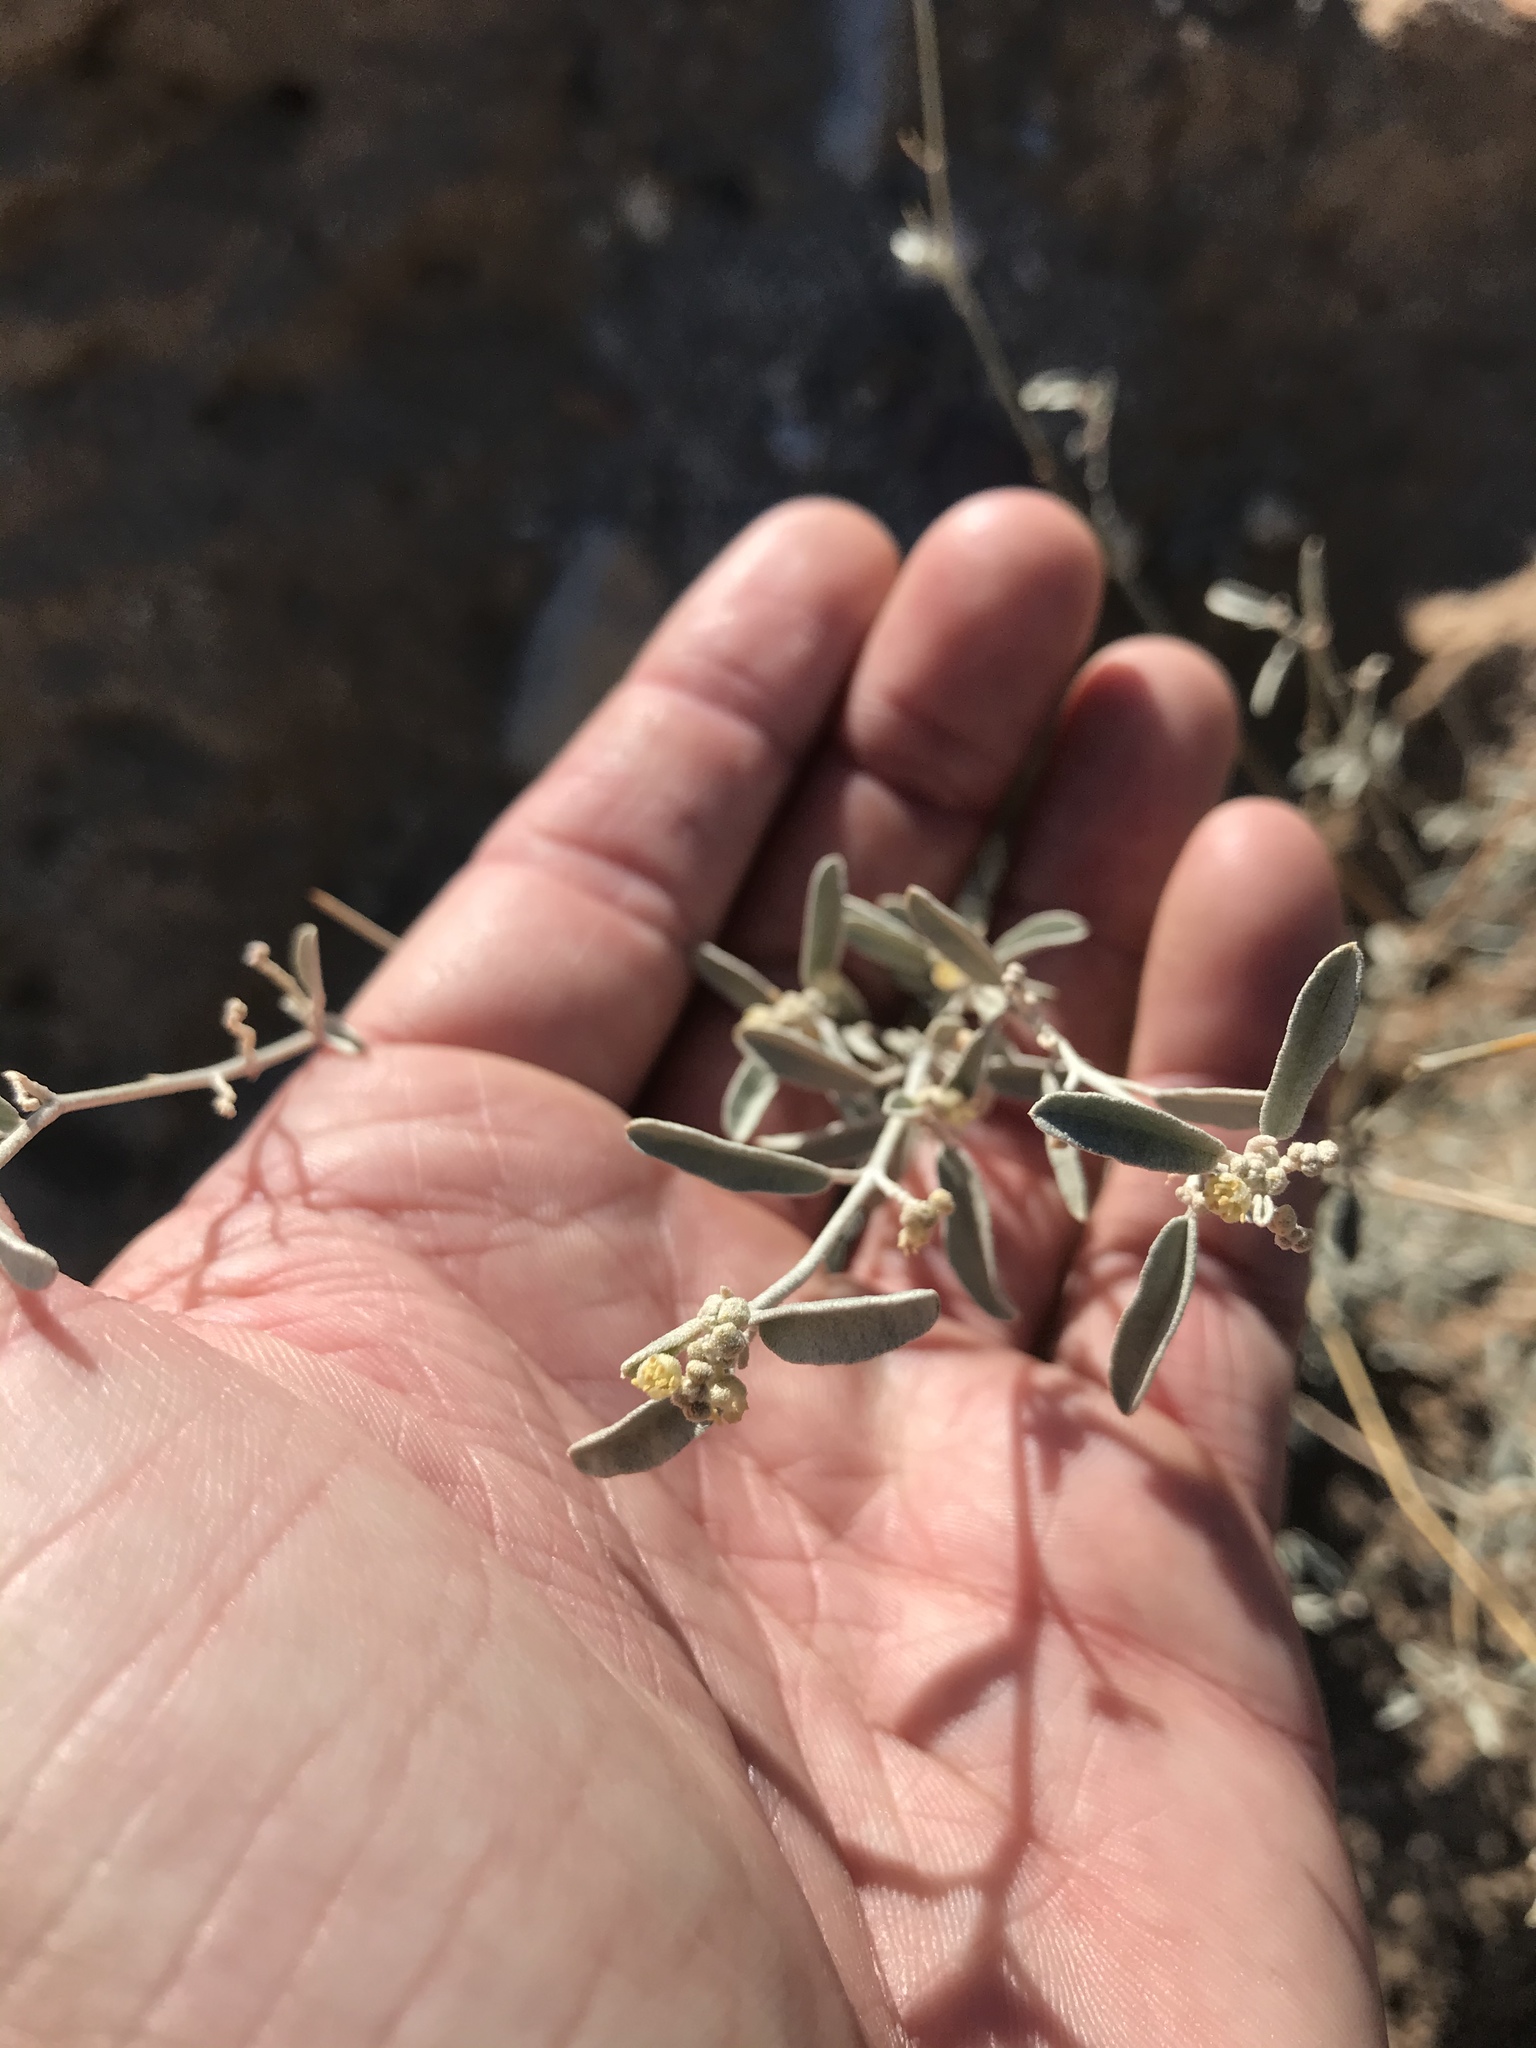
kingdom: Plantae
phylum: Tracheophyta
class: Magnoliopsida
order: Malpighiales
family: Euphorbiaceae
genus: Croton
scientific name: Croton californicus
